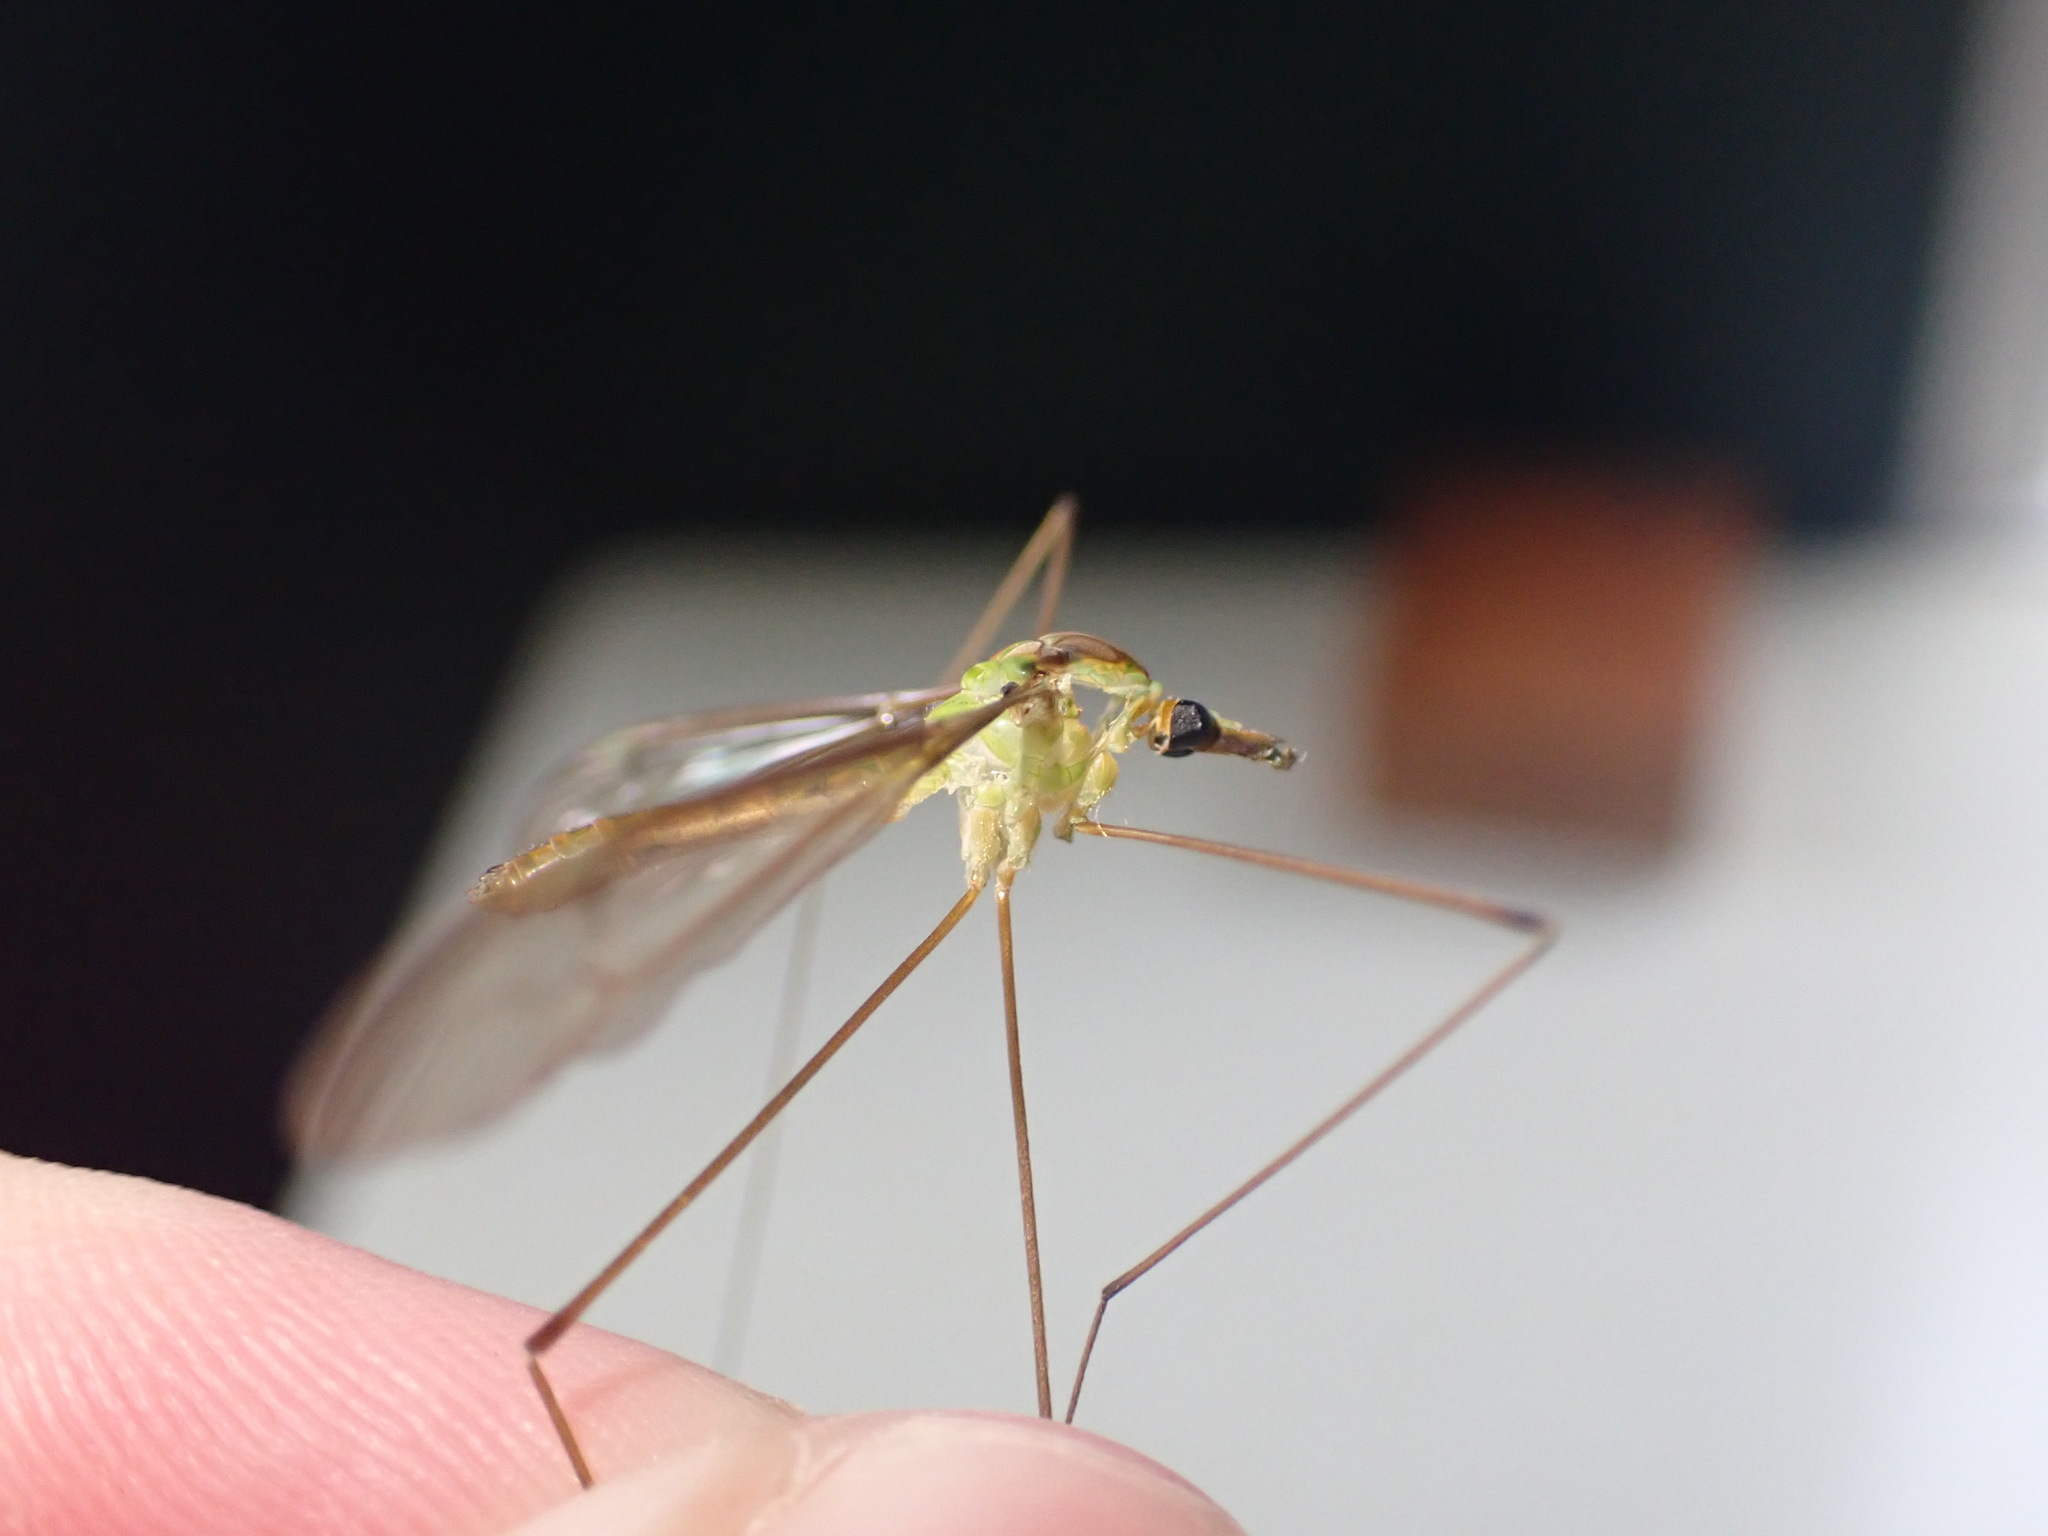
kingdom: Animalia
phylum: Arthropoda
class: Insecta
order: Diptera
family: Tipulidae
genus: Leptotarsus
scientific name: Leptotarsus virescens
